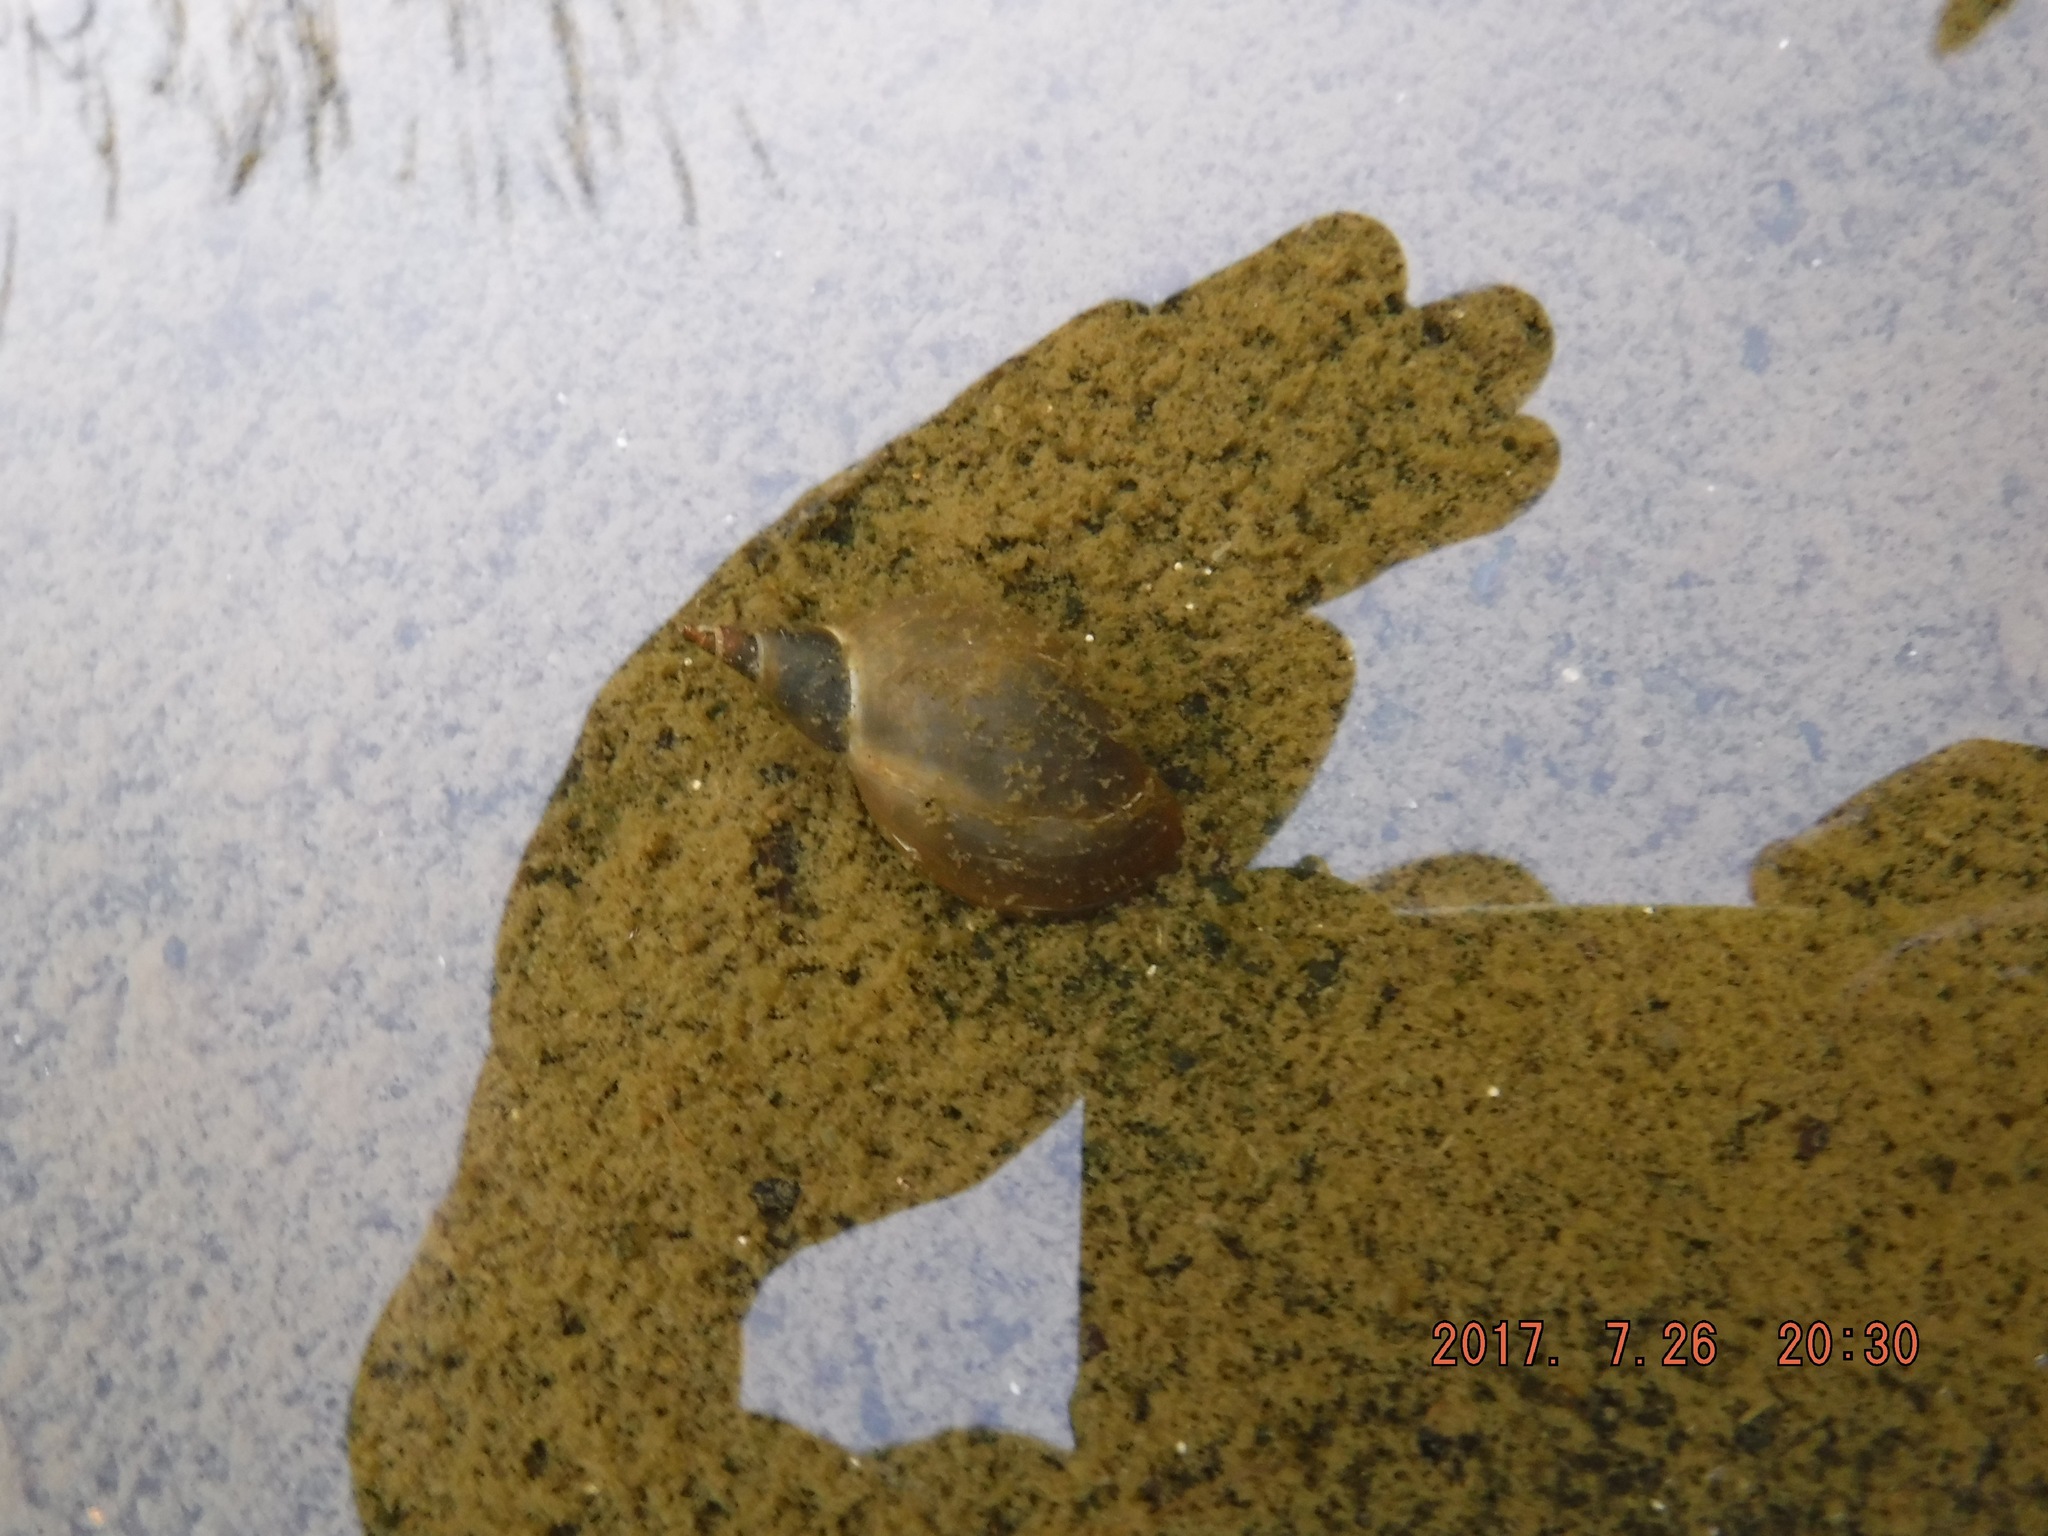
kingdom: Animalia
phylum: Mollusca
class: Gastropoda
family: Lymnaeidae
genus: Lymnaea
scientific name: Lymnaea stagnalis
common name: Great pond snail
